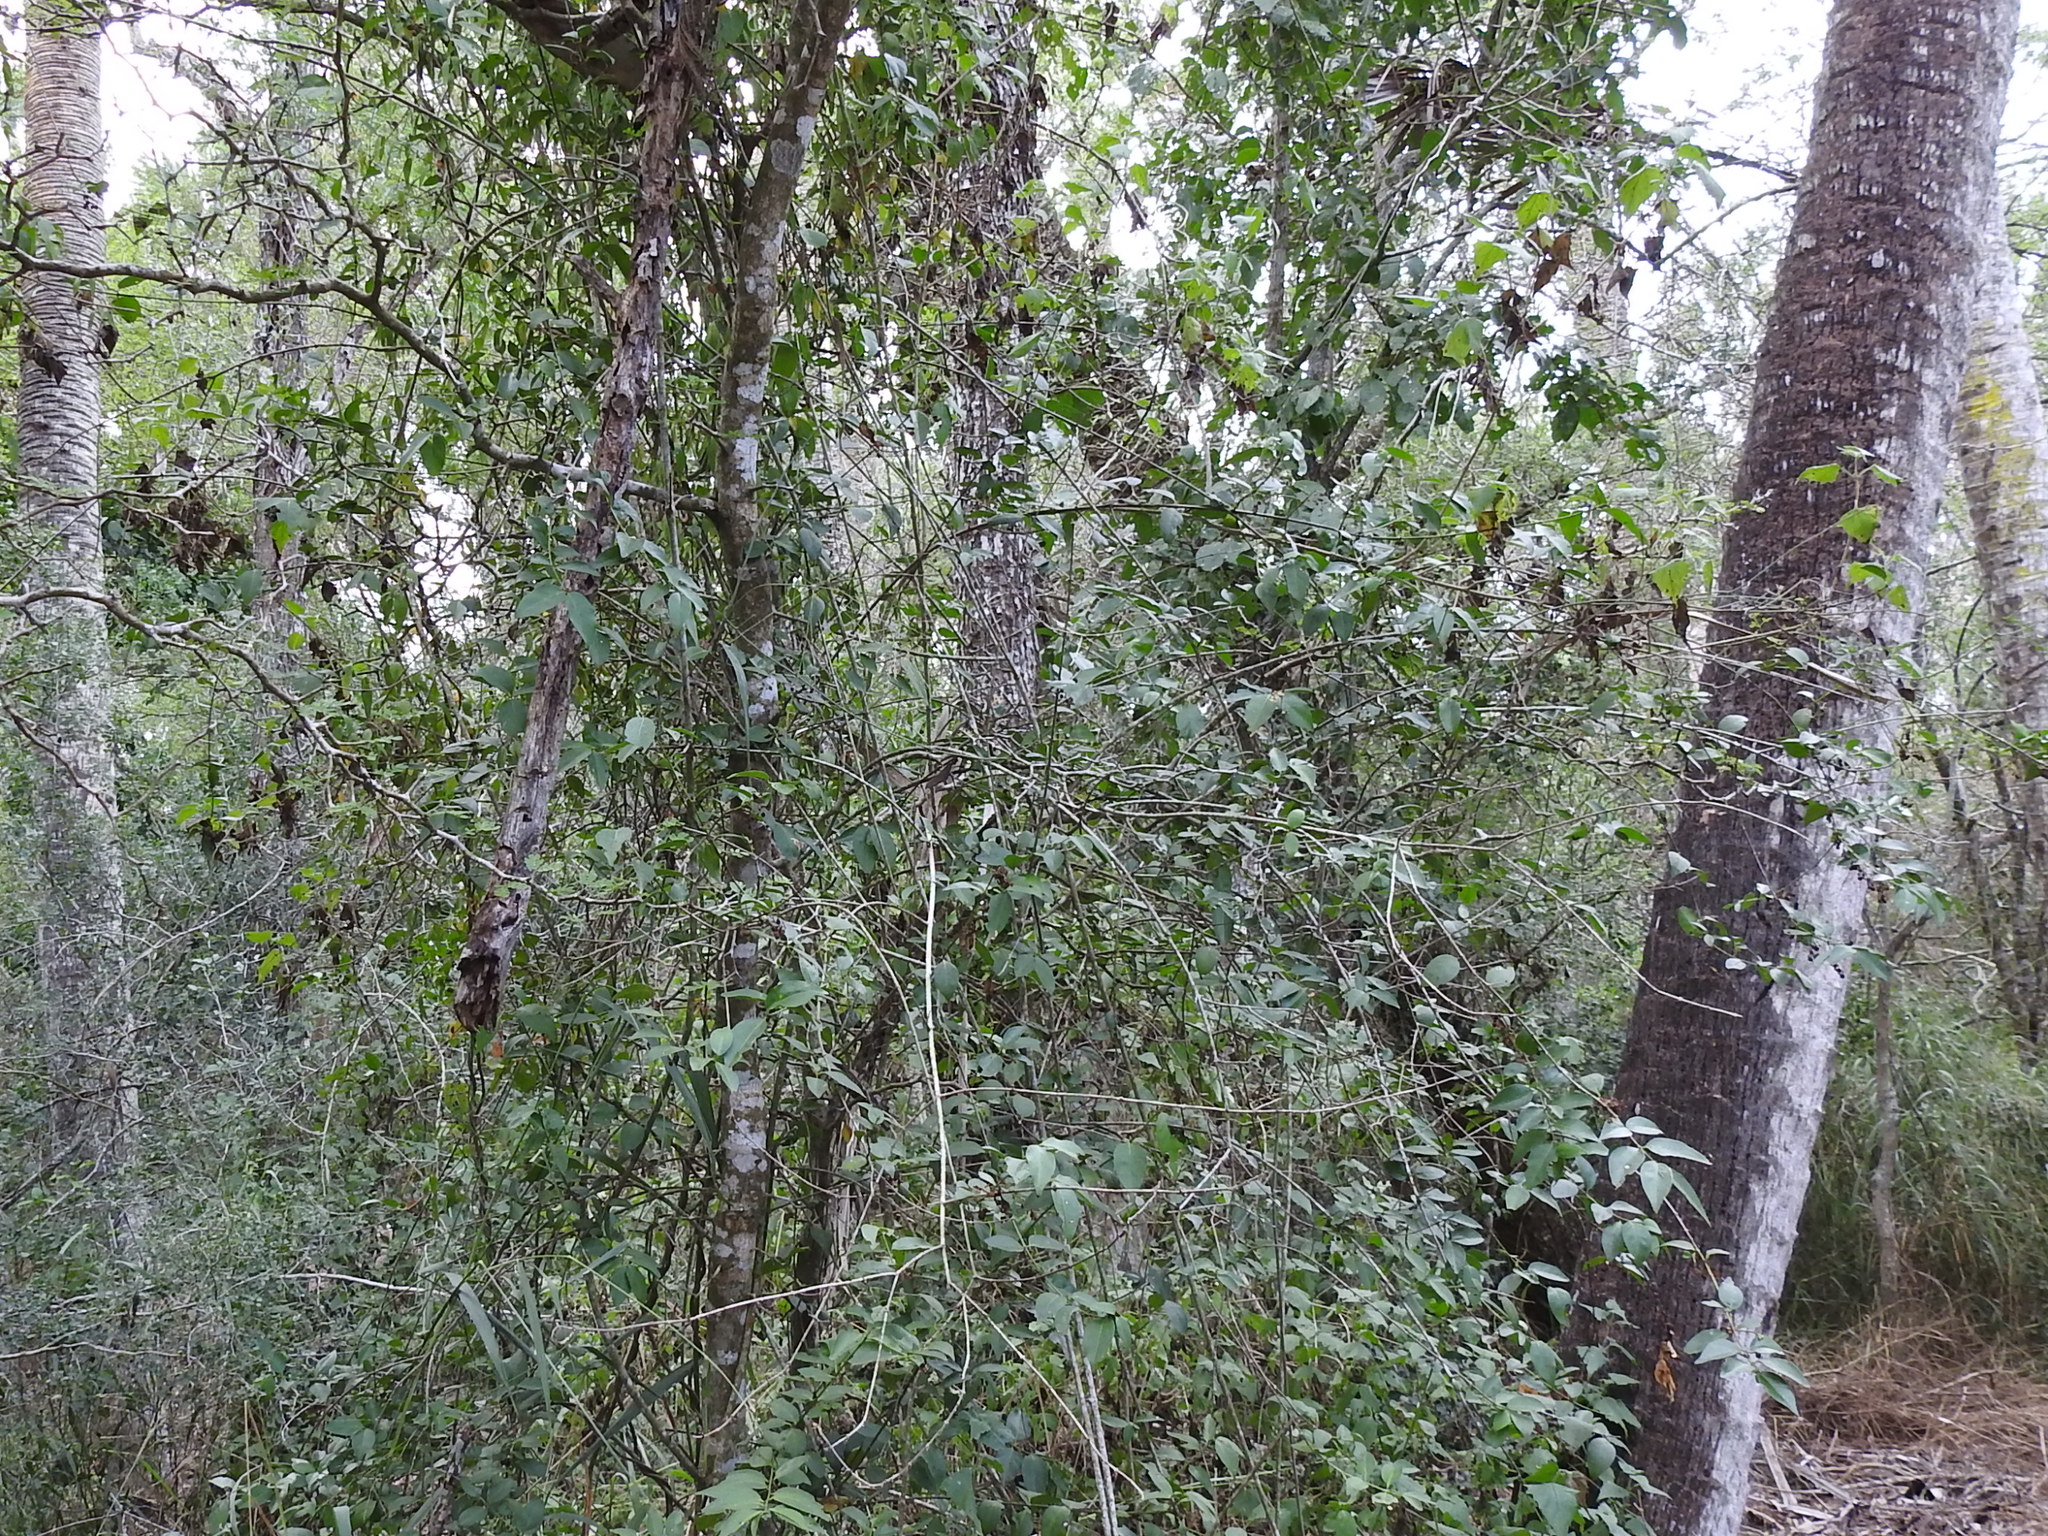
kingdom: Plantae
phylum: Tracheophyta
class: Magnoliopsida
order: Gentianales
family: Rubiaceae
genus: Chiococca
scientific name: Chiococca alba
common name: Snowberry
